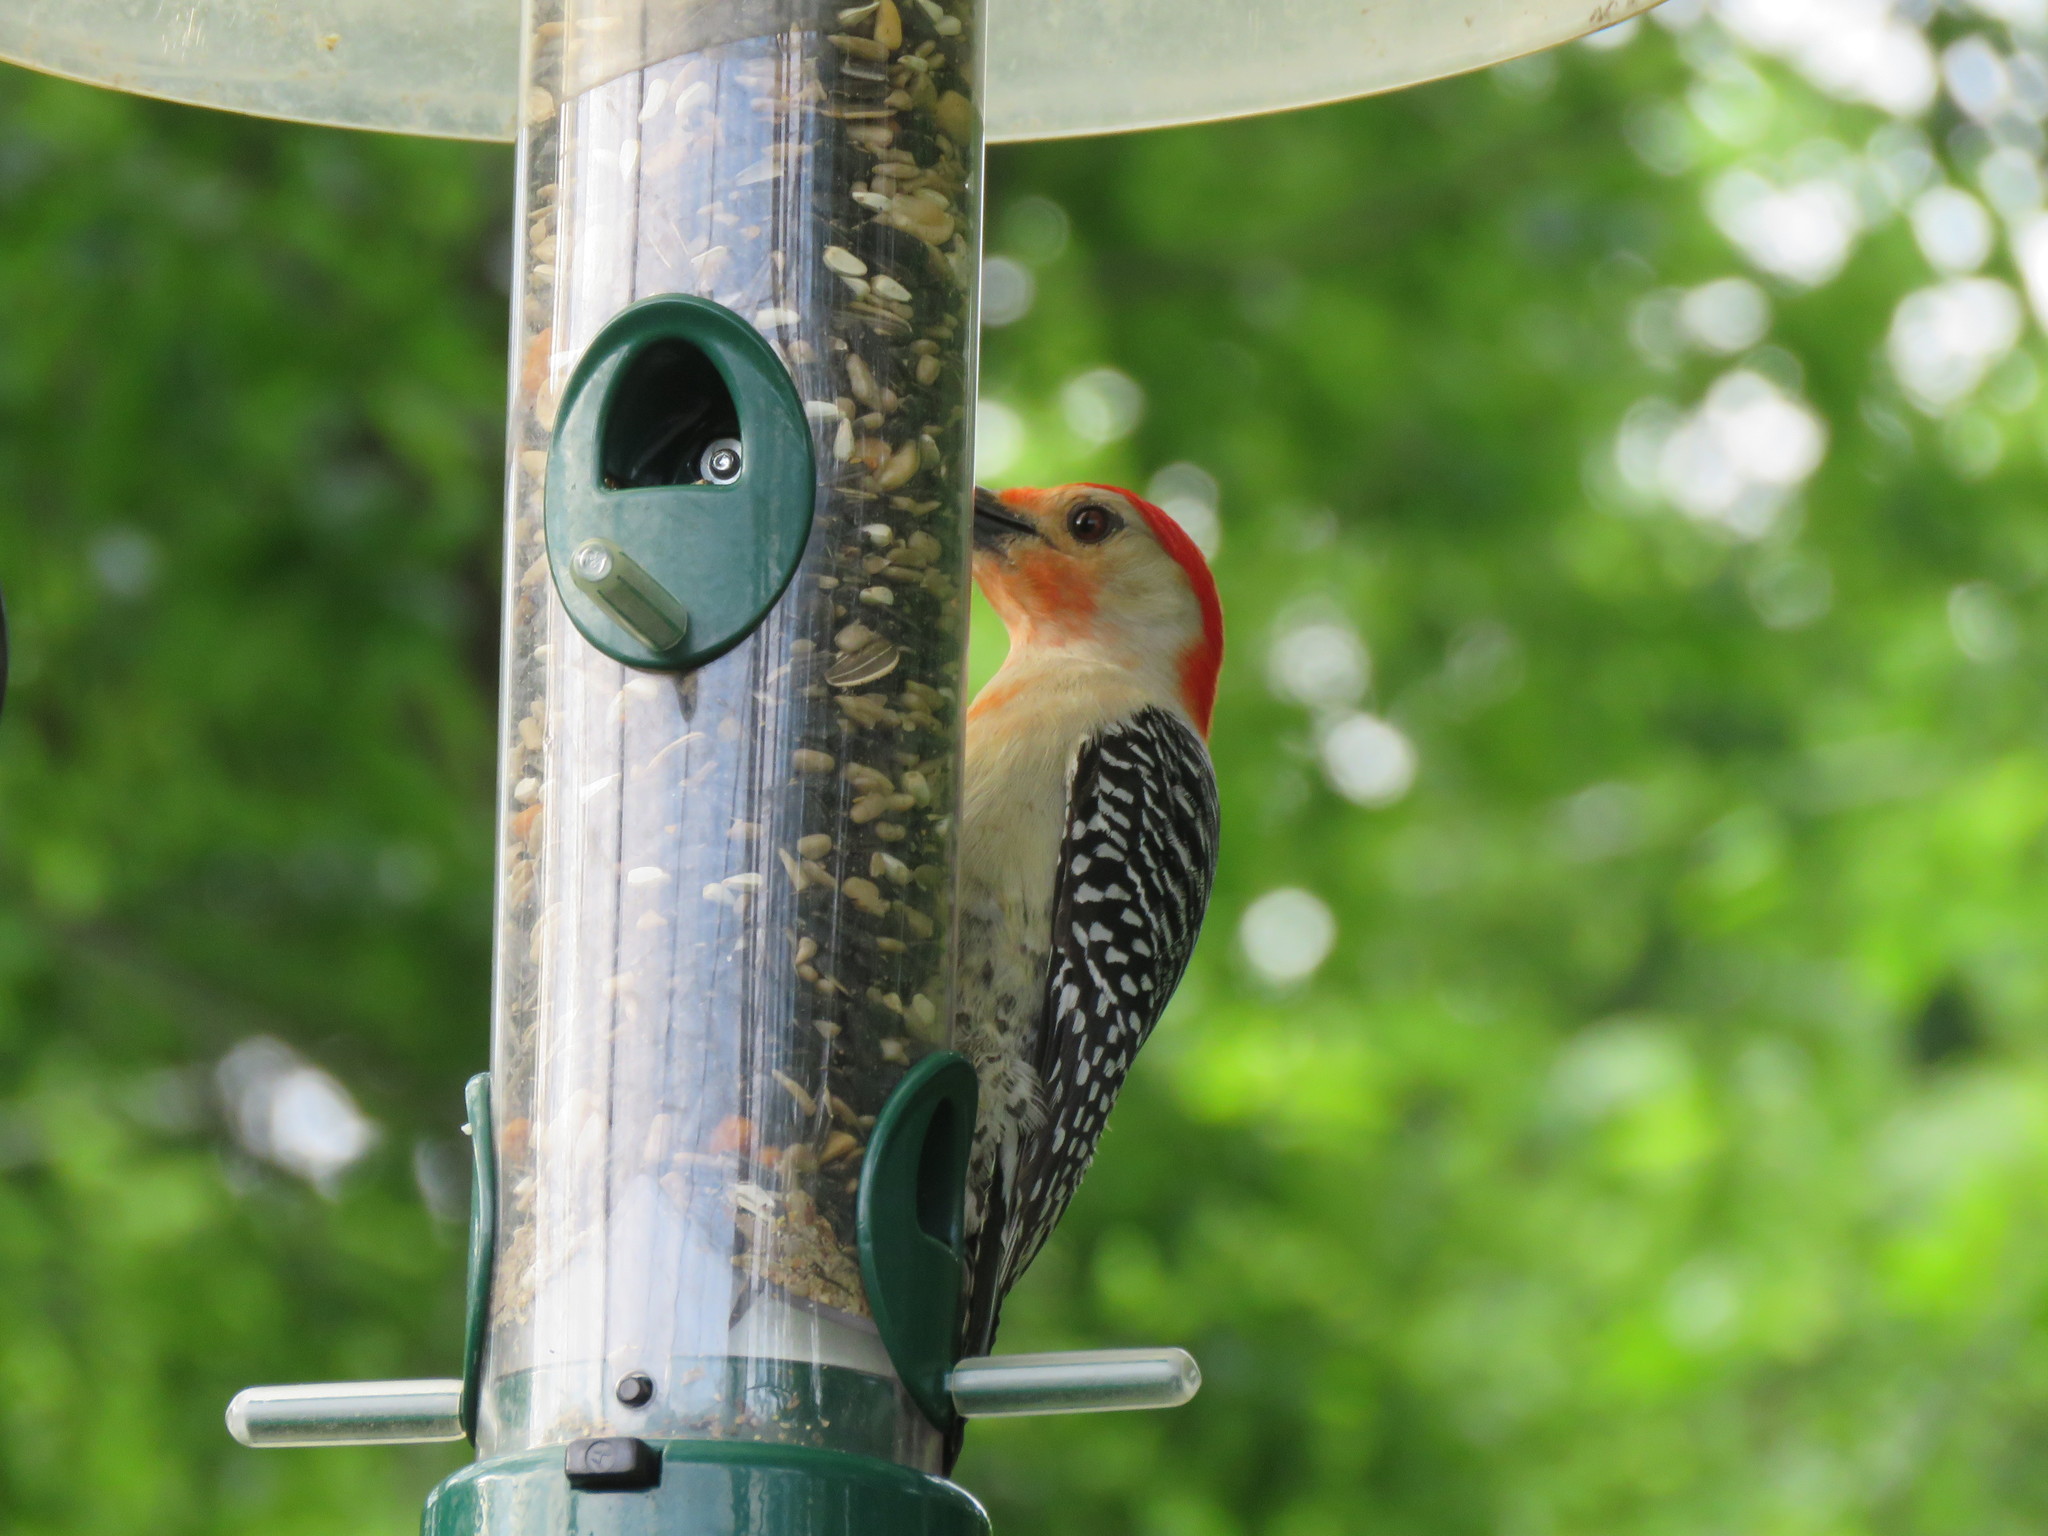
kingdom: Animalia
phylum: Chordata
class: Aves
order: Piciformes
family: Picidae
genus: Melanerpes
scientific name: Melanerpes carolinus
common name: Red-bellied woodpecker
